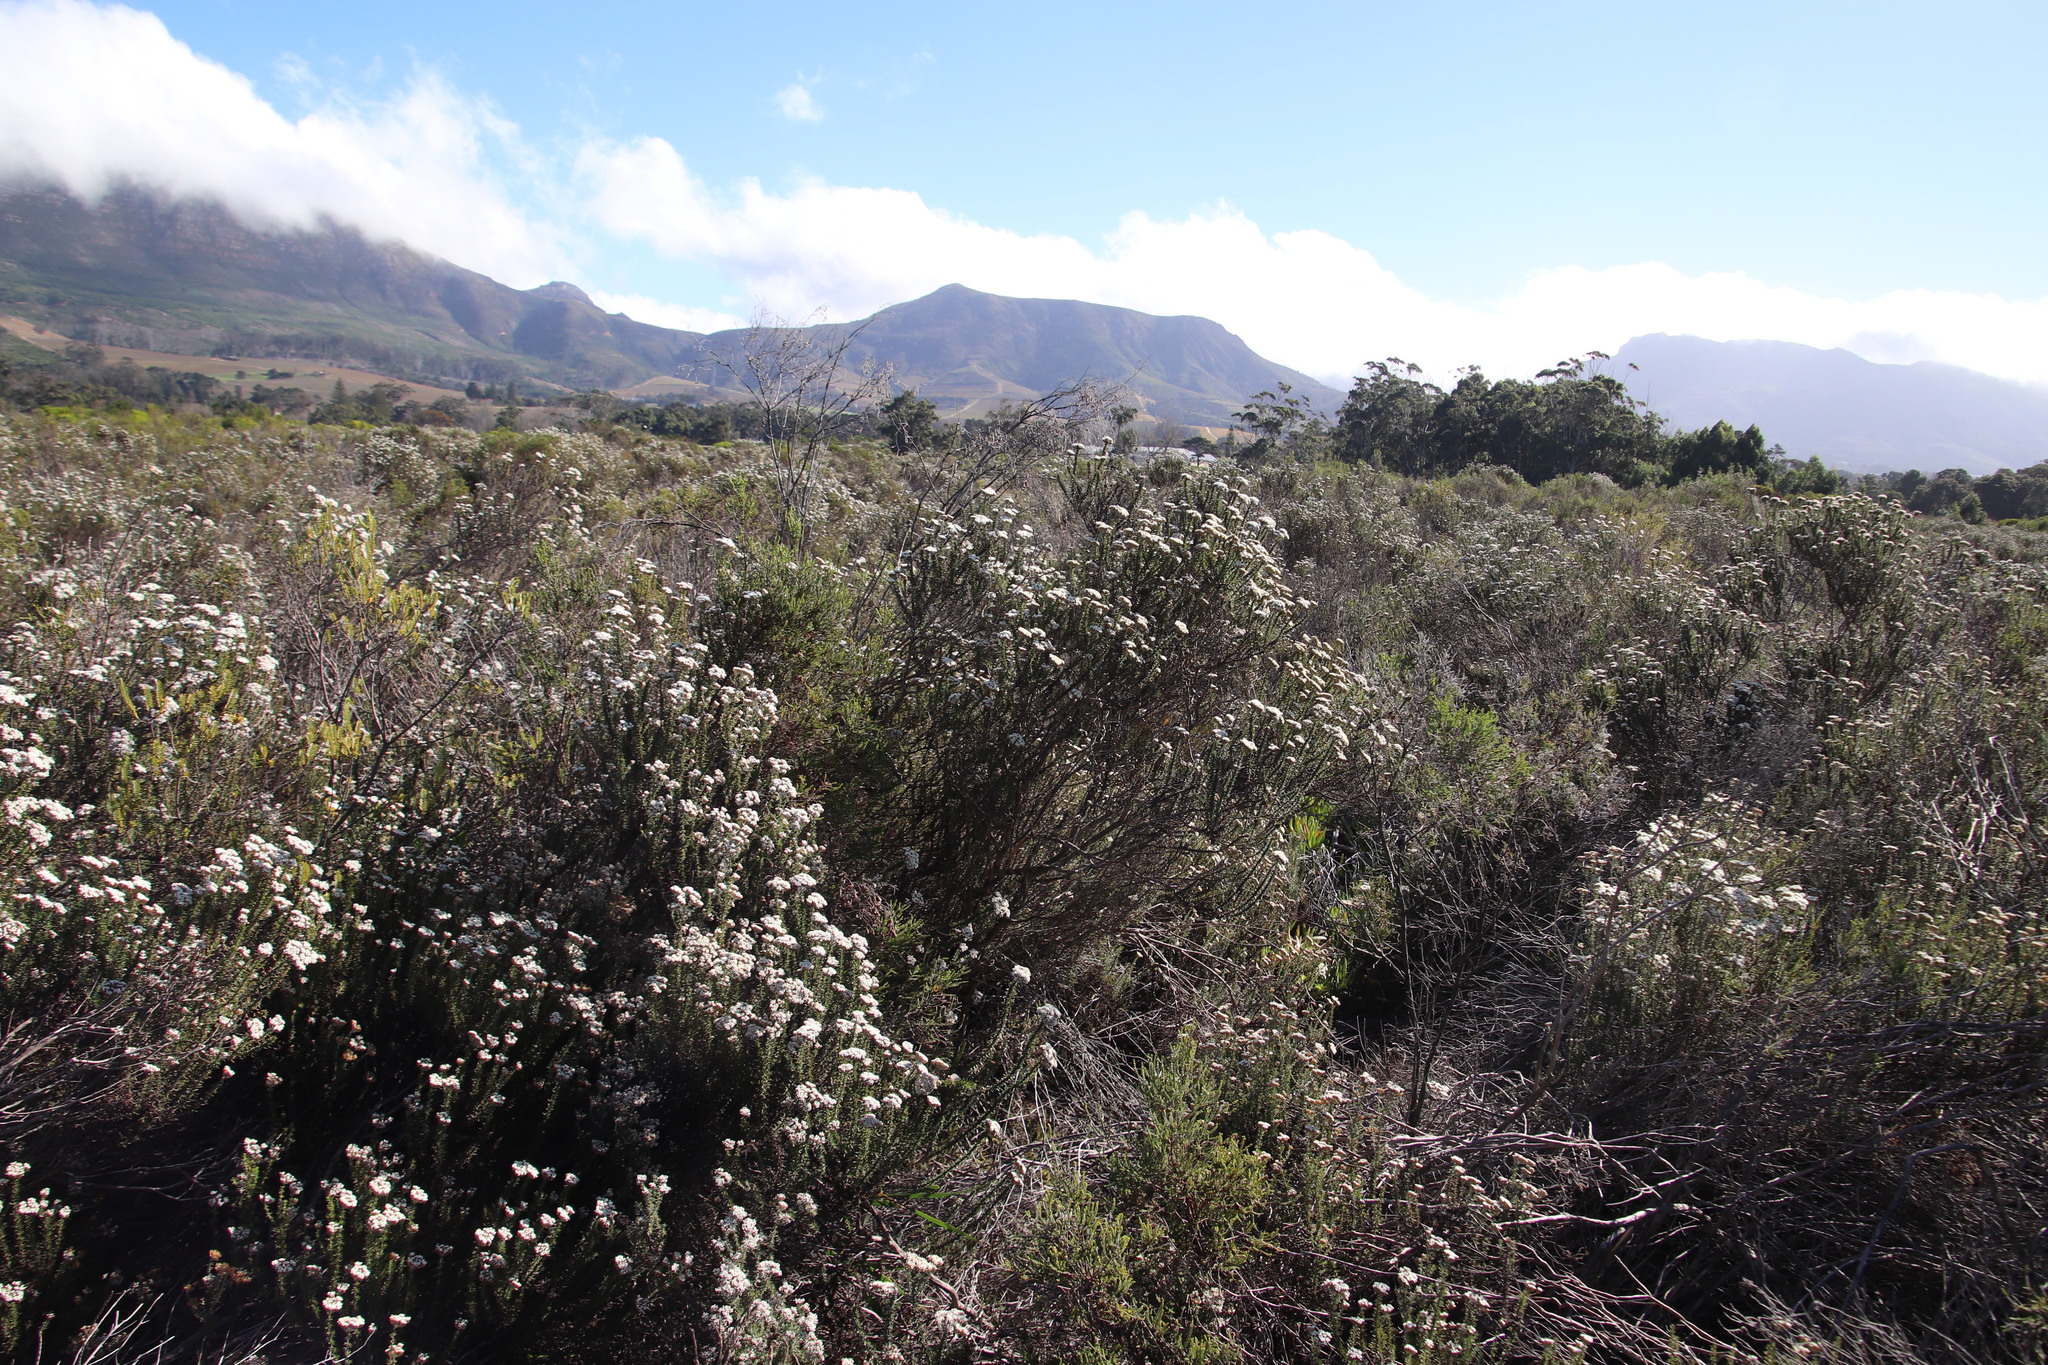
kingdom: Plantae
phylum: Tracheophyta
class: Magnoliopsida
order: Asterales
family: Asteraceae
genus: Metalasia
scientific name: Metalasia densa
